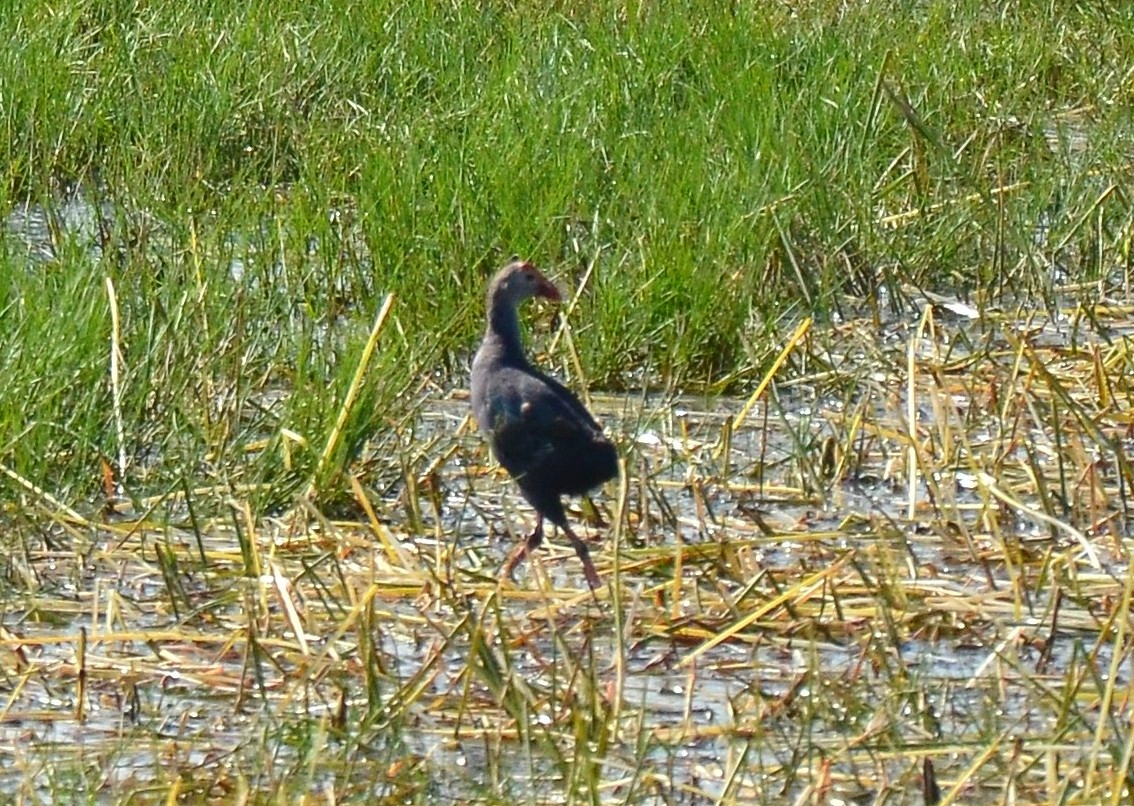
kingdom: Animalia
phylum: Chordata
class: Aves
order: Gruiformes
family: Rallidae
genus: Porphyrio
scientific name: Porphyrio porphyrio
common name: Purple swamphen
